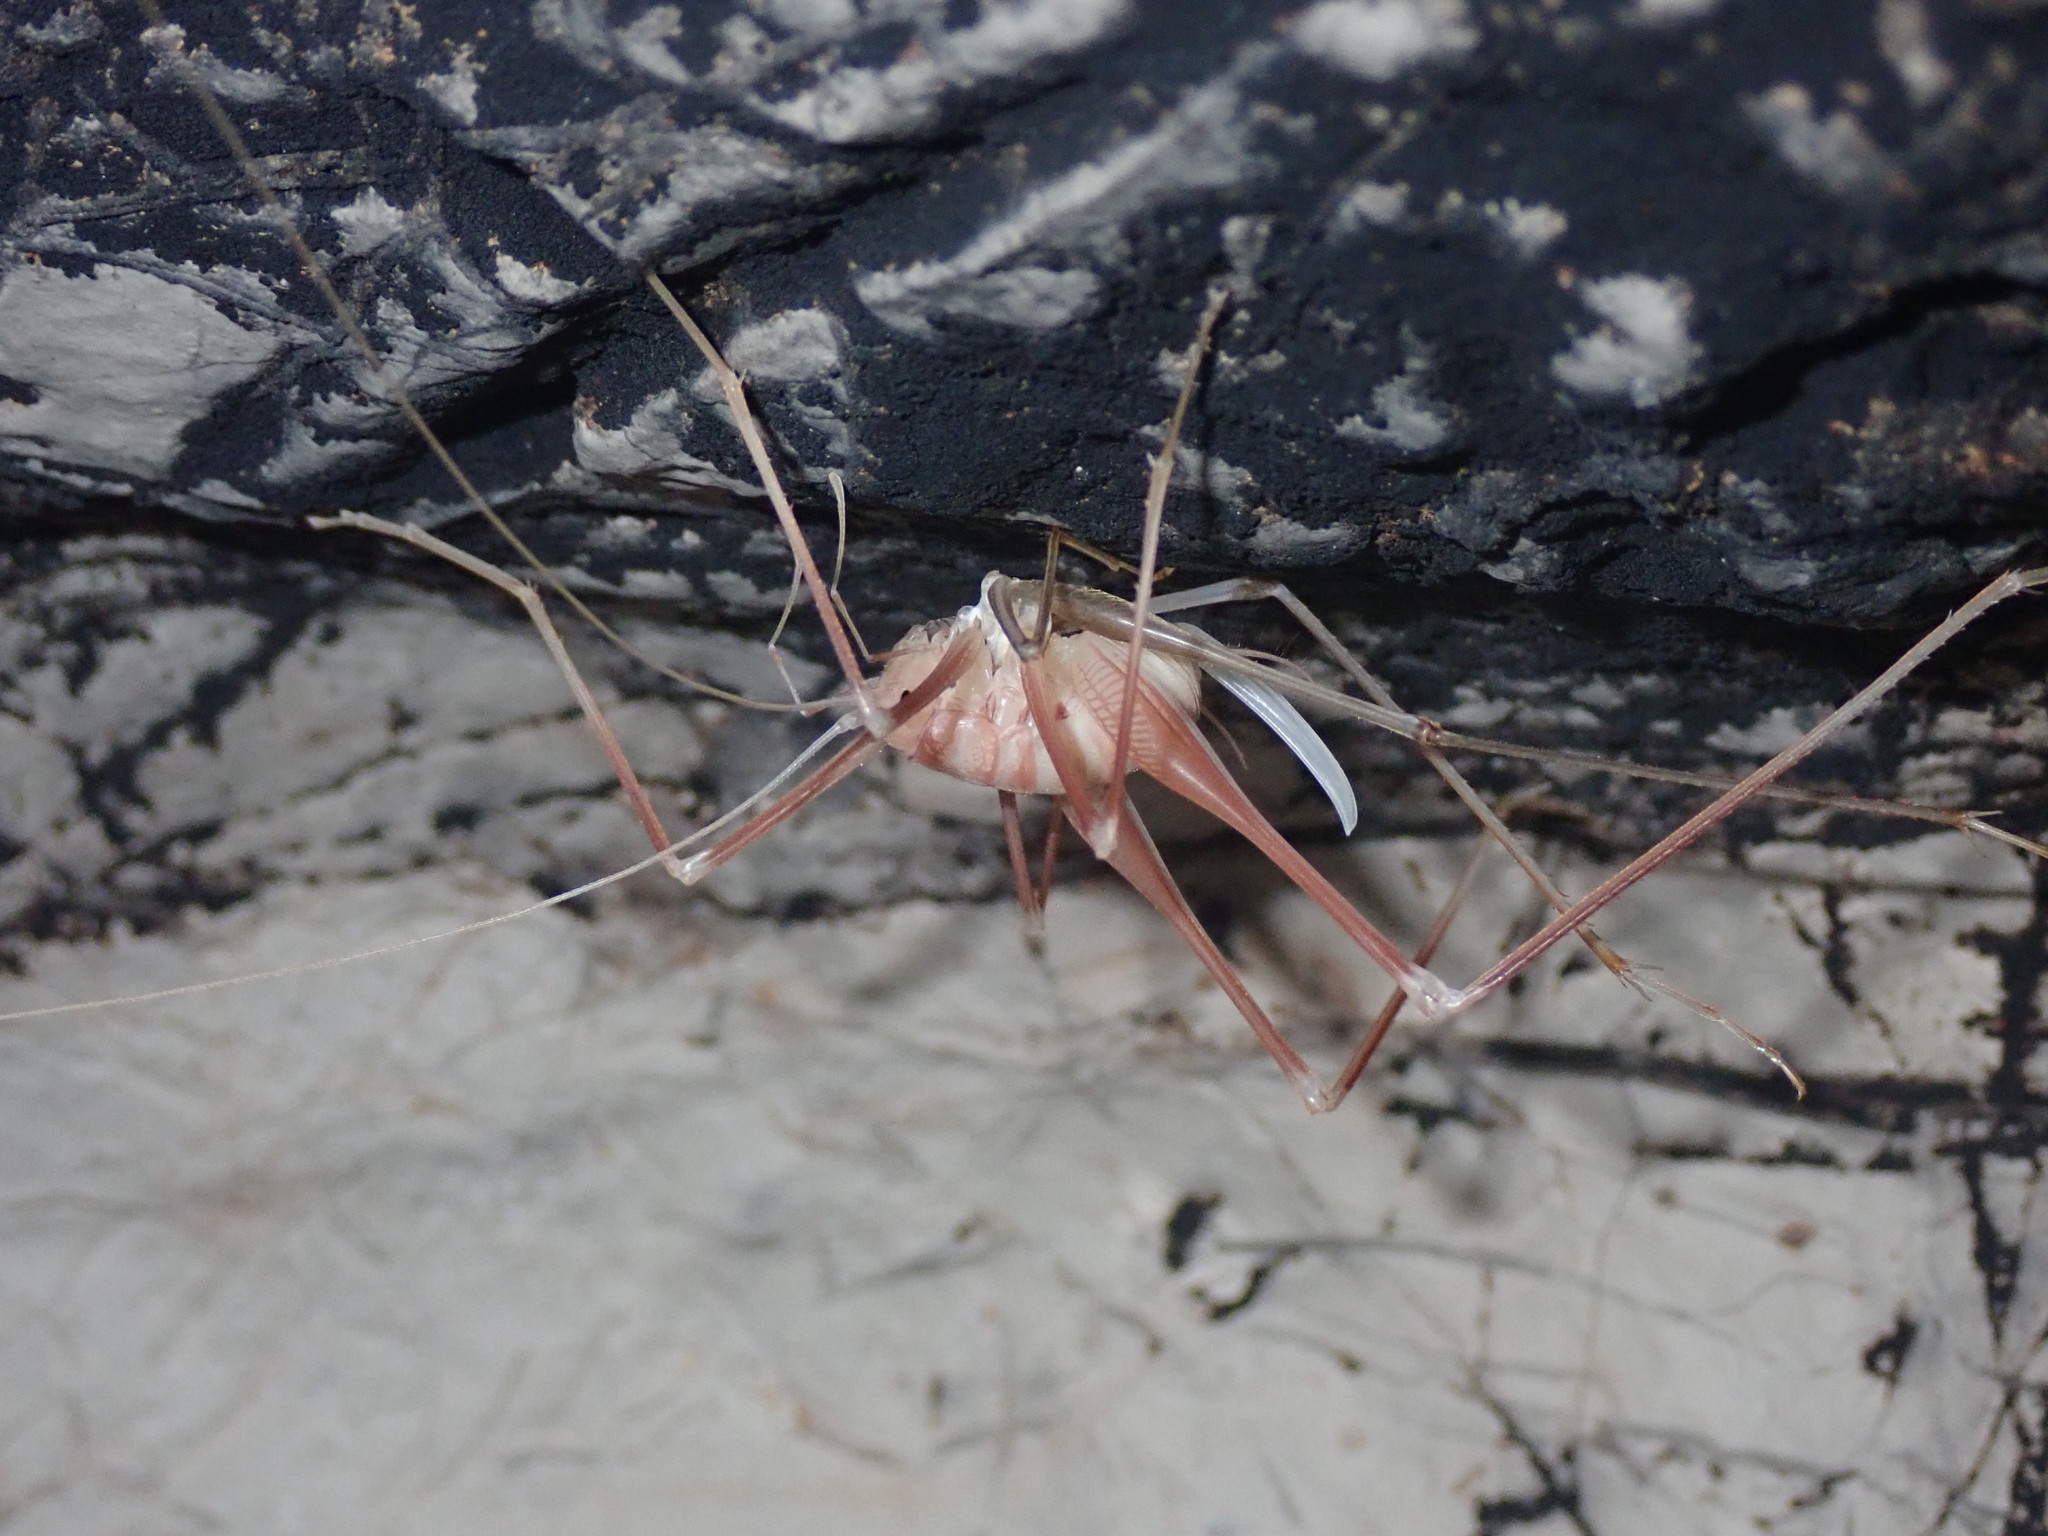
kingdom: Animalia
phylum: Arthropoda
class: Insecta
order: Orthoptera
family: Rhaphidophoridae
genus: Dolichopoda
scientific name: Dolichopoda araneiformis
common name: Spidery cave-cricket
